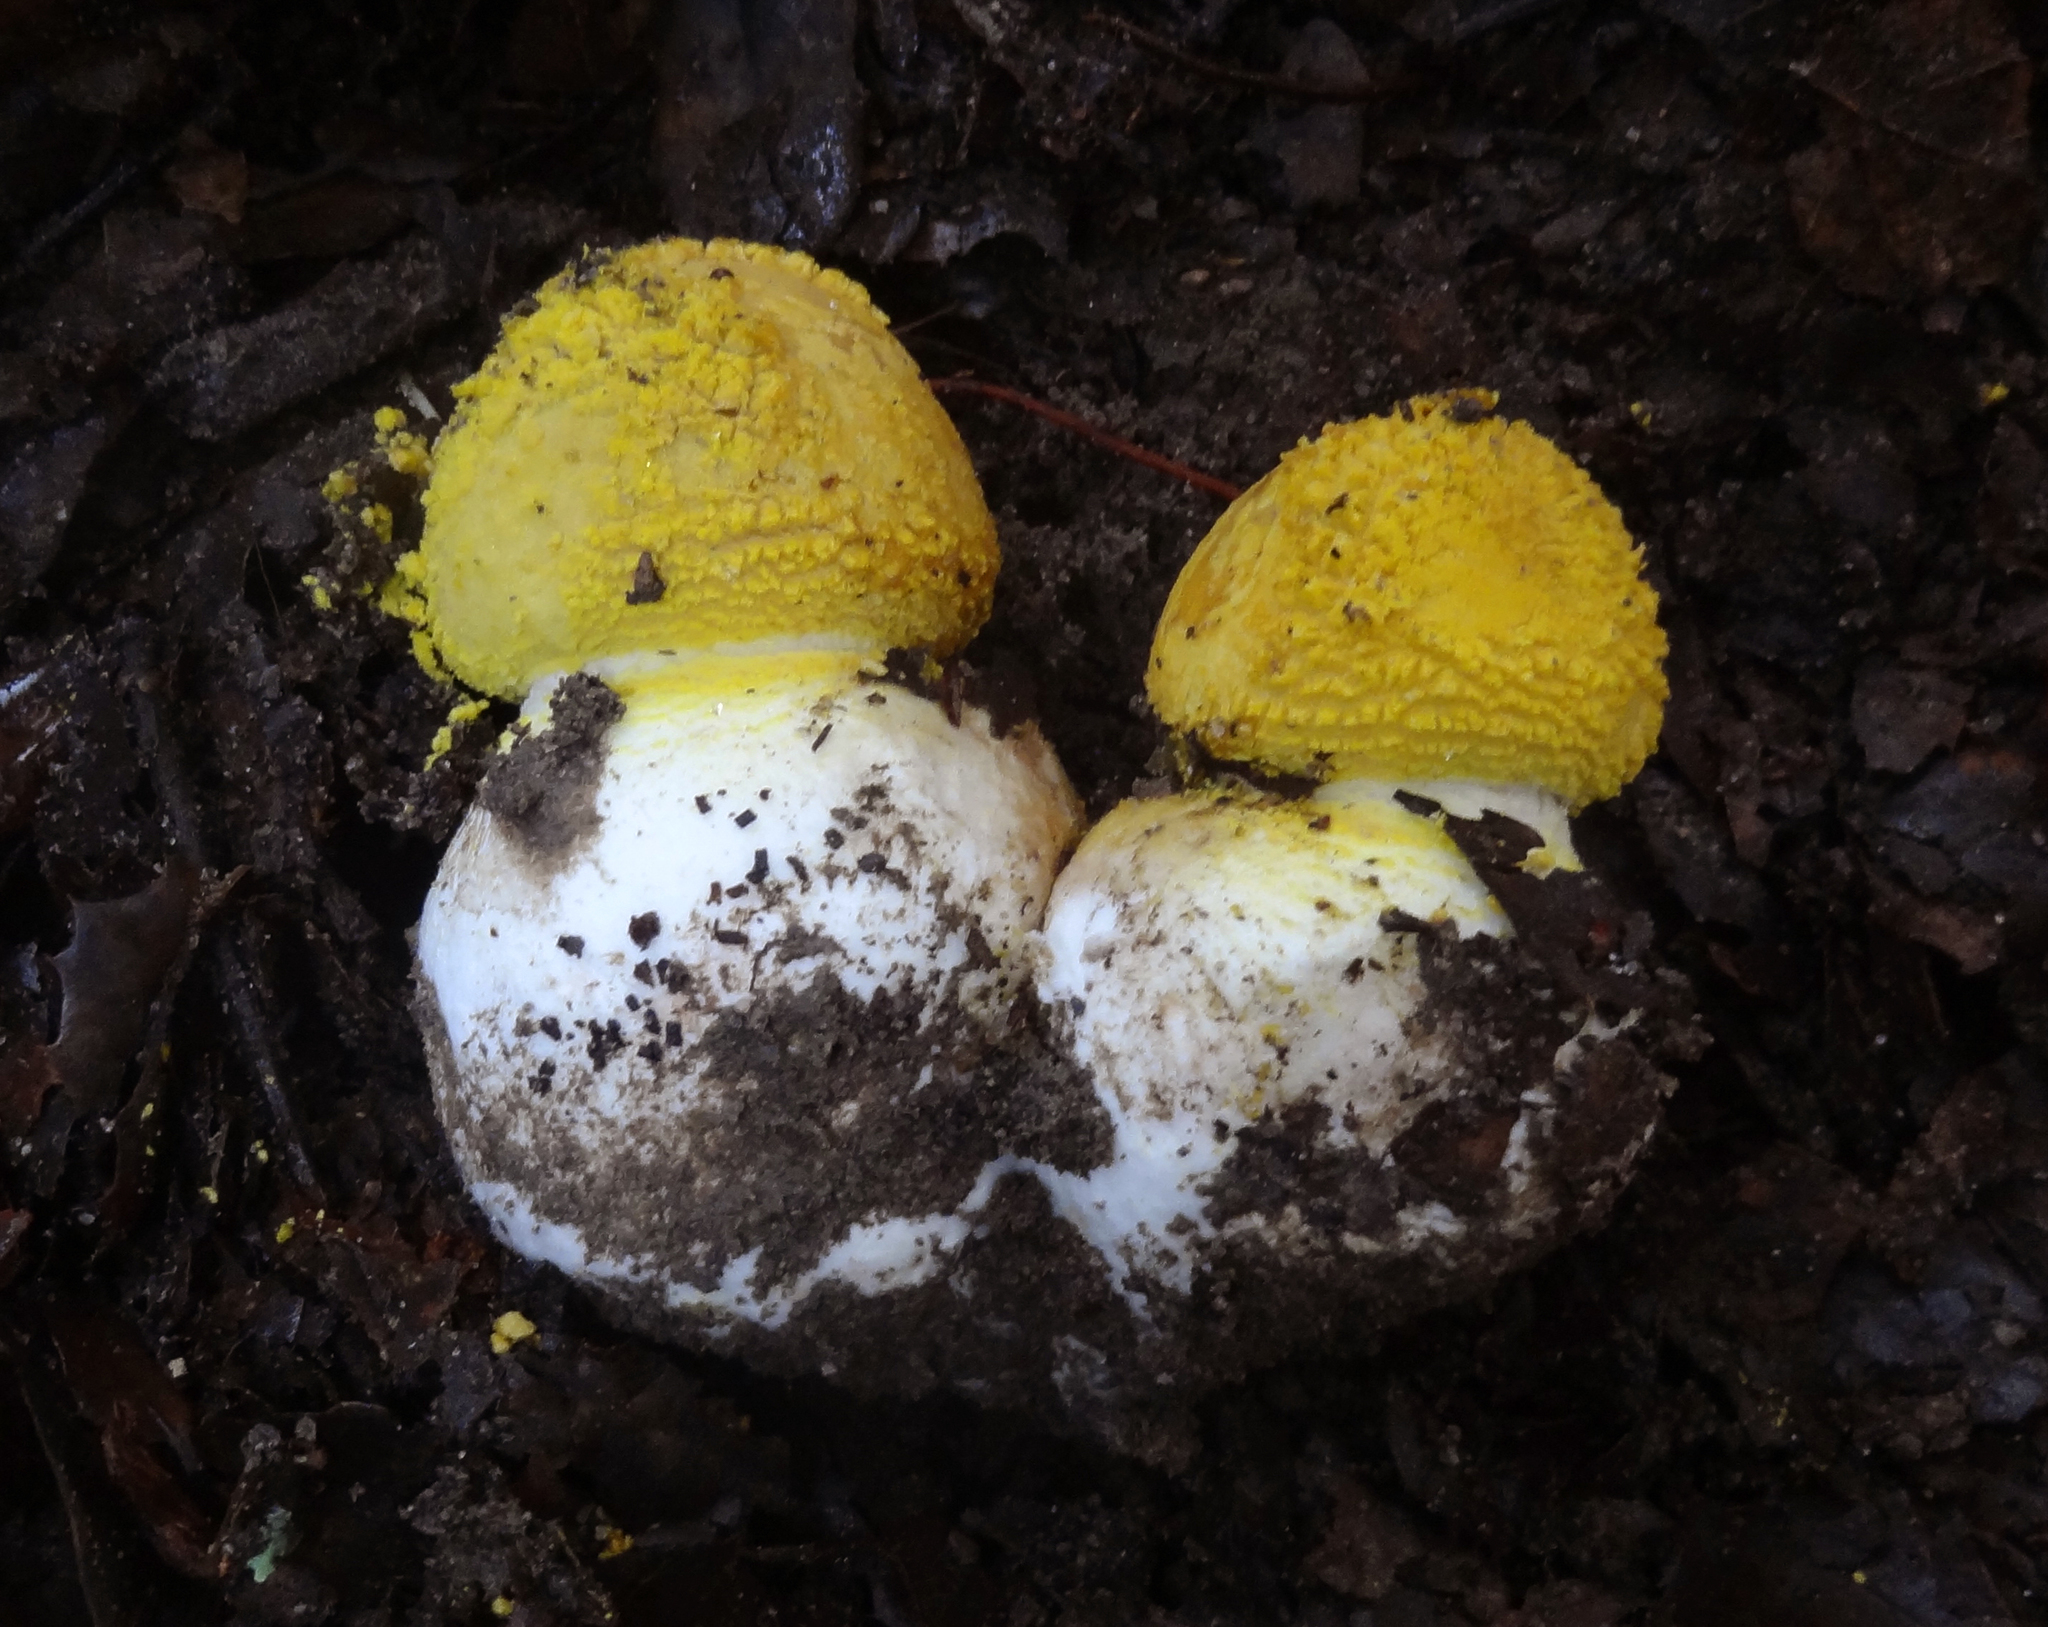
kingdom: Fungi
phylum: Basidiomycota
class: Agaricomycetes
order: Agaricales
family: Amanitaceae
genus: Amanita
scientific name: Amanita augusta
